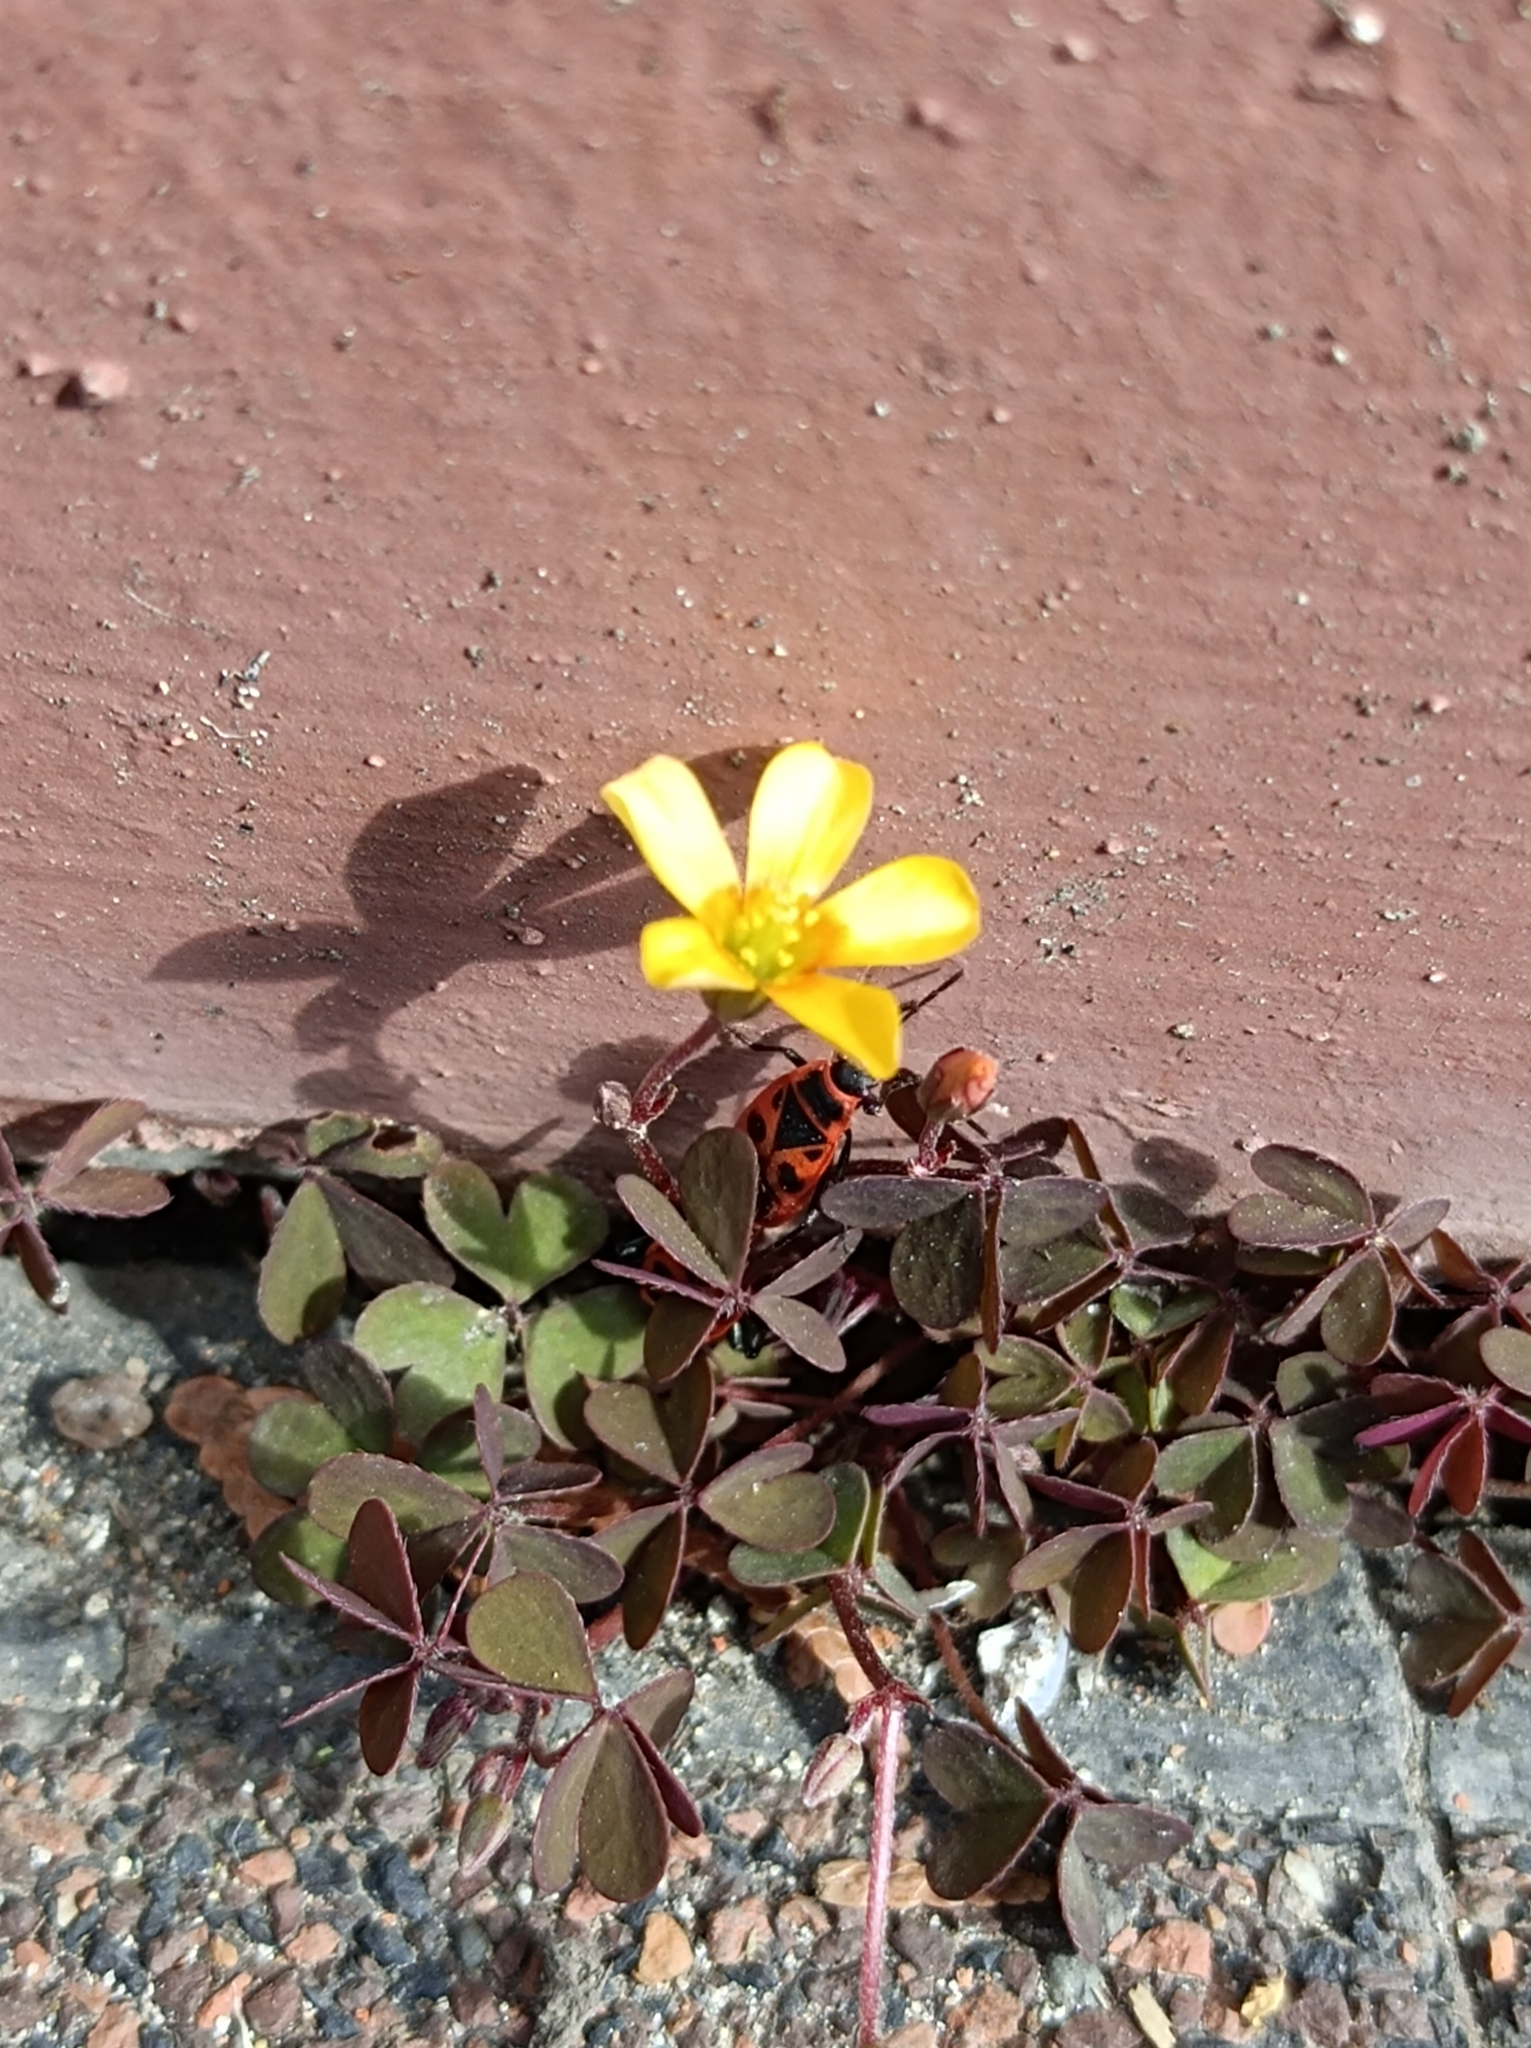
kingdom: Plantae
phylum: Tracheophyta
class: Magnoliopsida
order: Oxalidales
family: Oxalidaceae
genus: Oxalis
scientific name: Oxalis corniculata
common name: Procumbent yellow-sorrel
